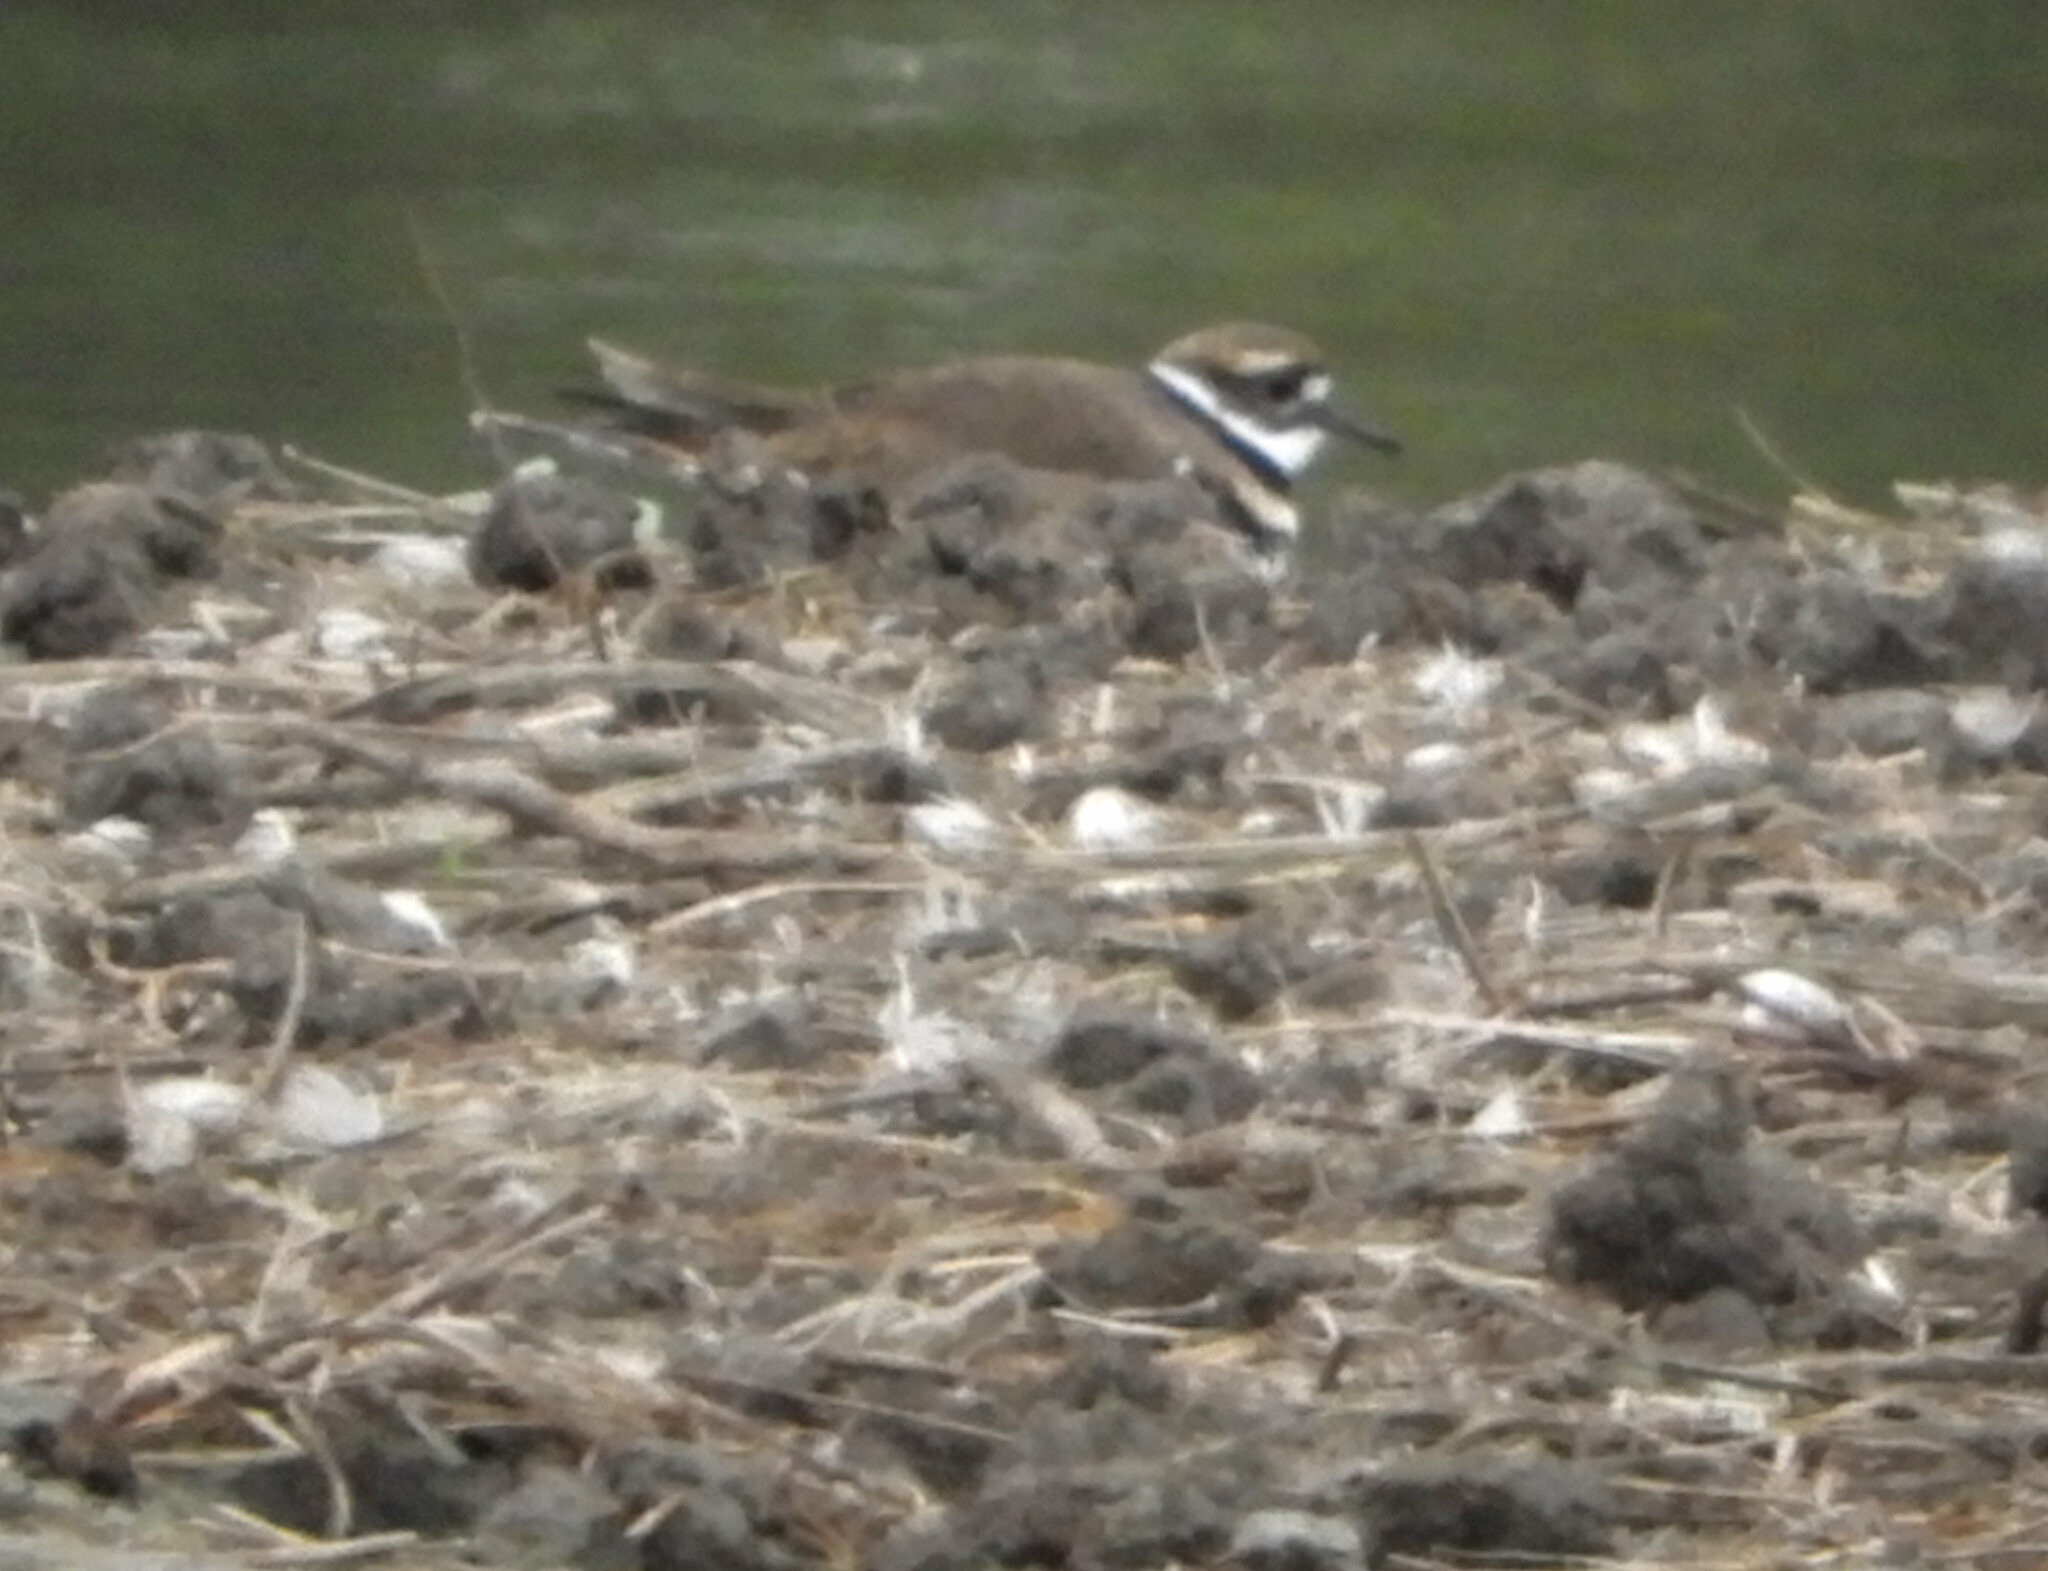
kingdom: Animalia
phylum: Chordata
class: Aves
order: Charadriiformes
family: Charadriidae
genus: Charadrius
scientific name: Charadrius vociferus
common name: Killdeer
